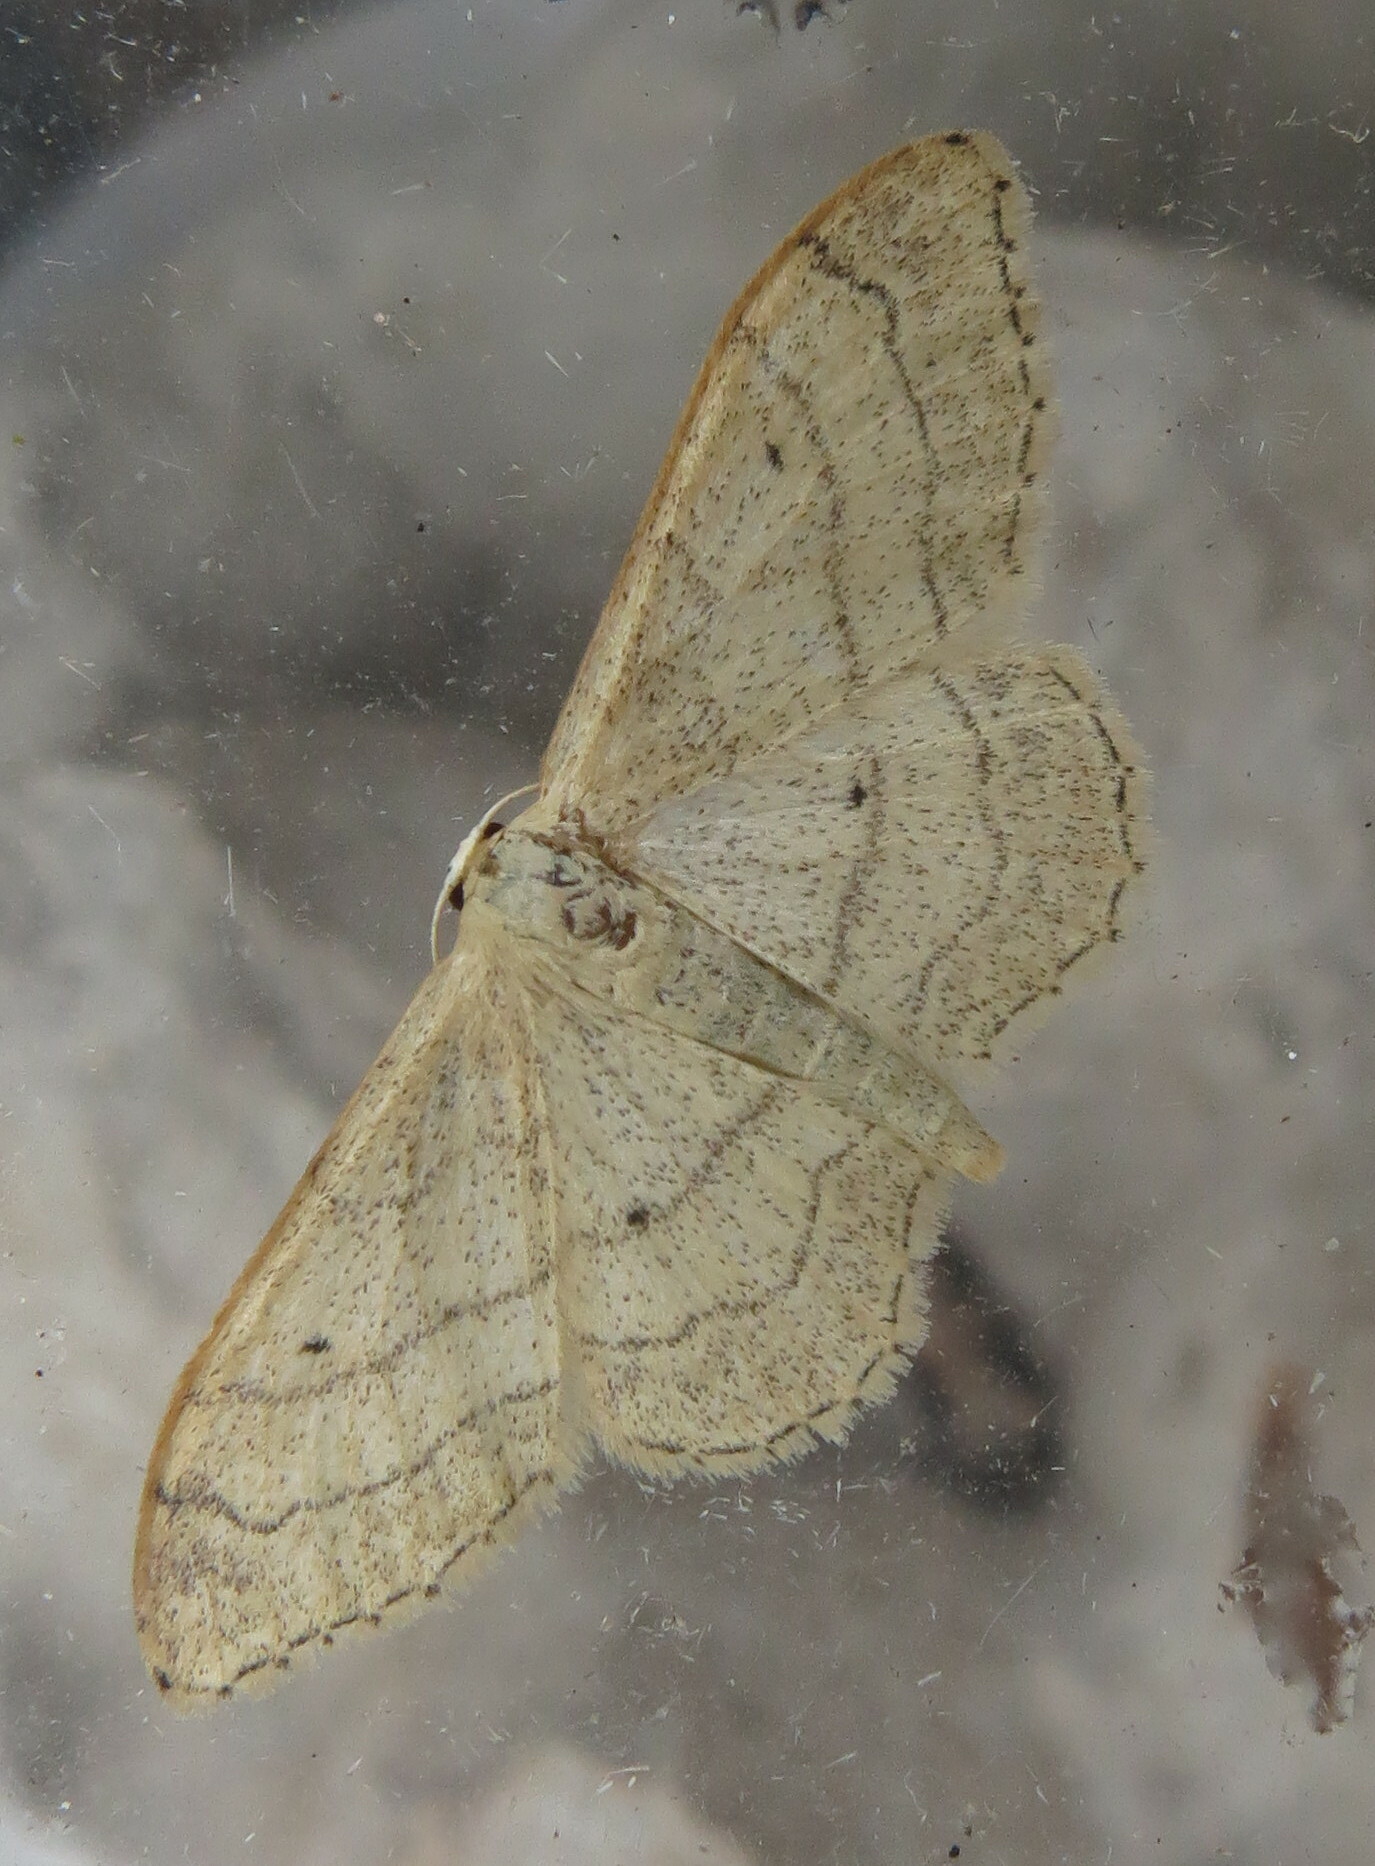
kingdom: Animalia
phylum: Arthropoda
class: Insecta
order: Lepidoptera
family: Geometridae
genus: Idaea
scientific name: Idaea aversata
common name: Riband wave
